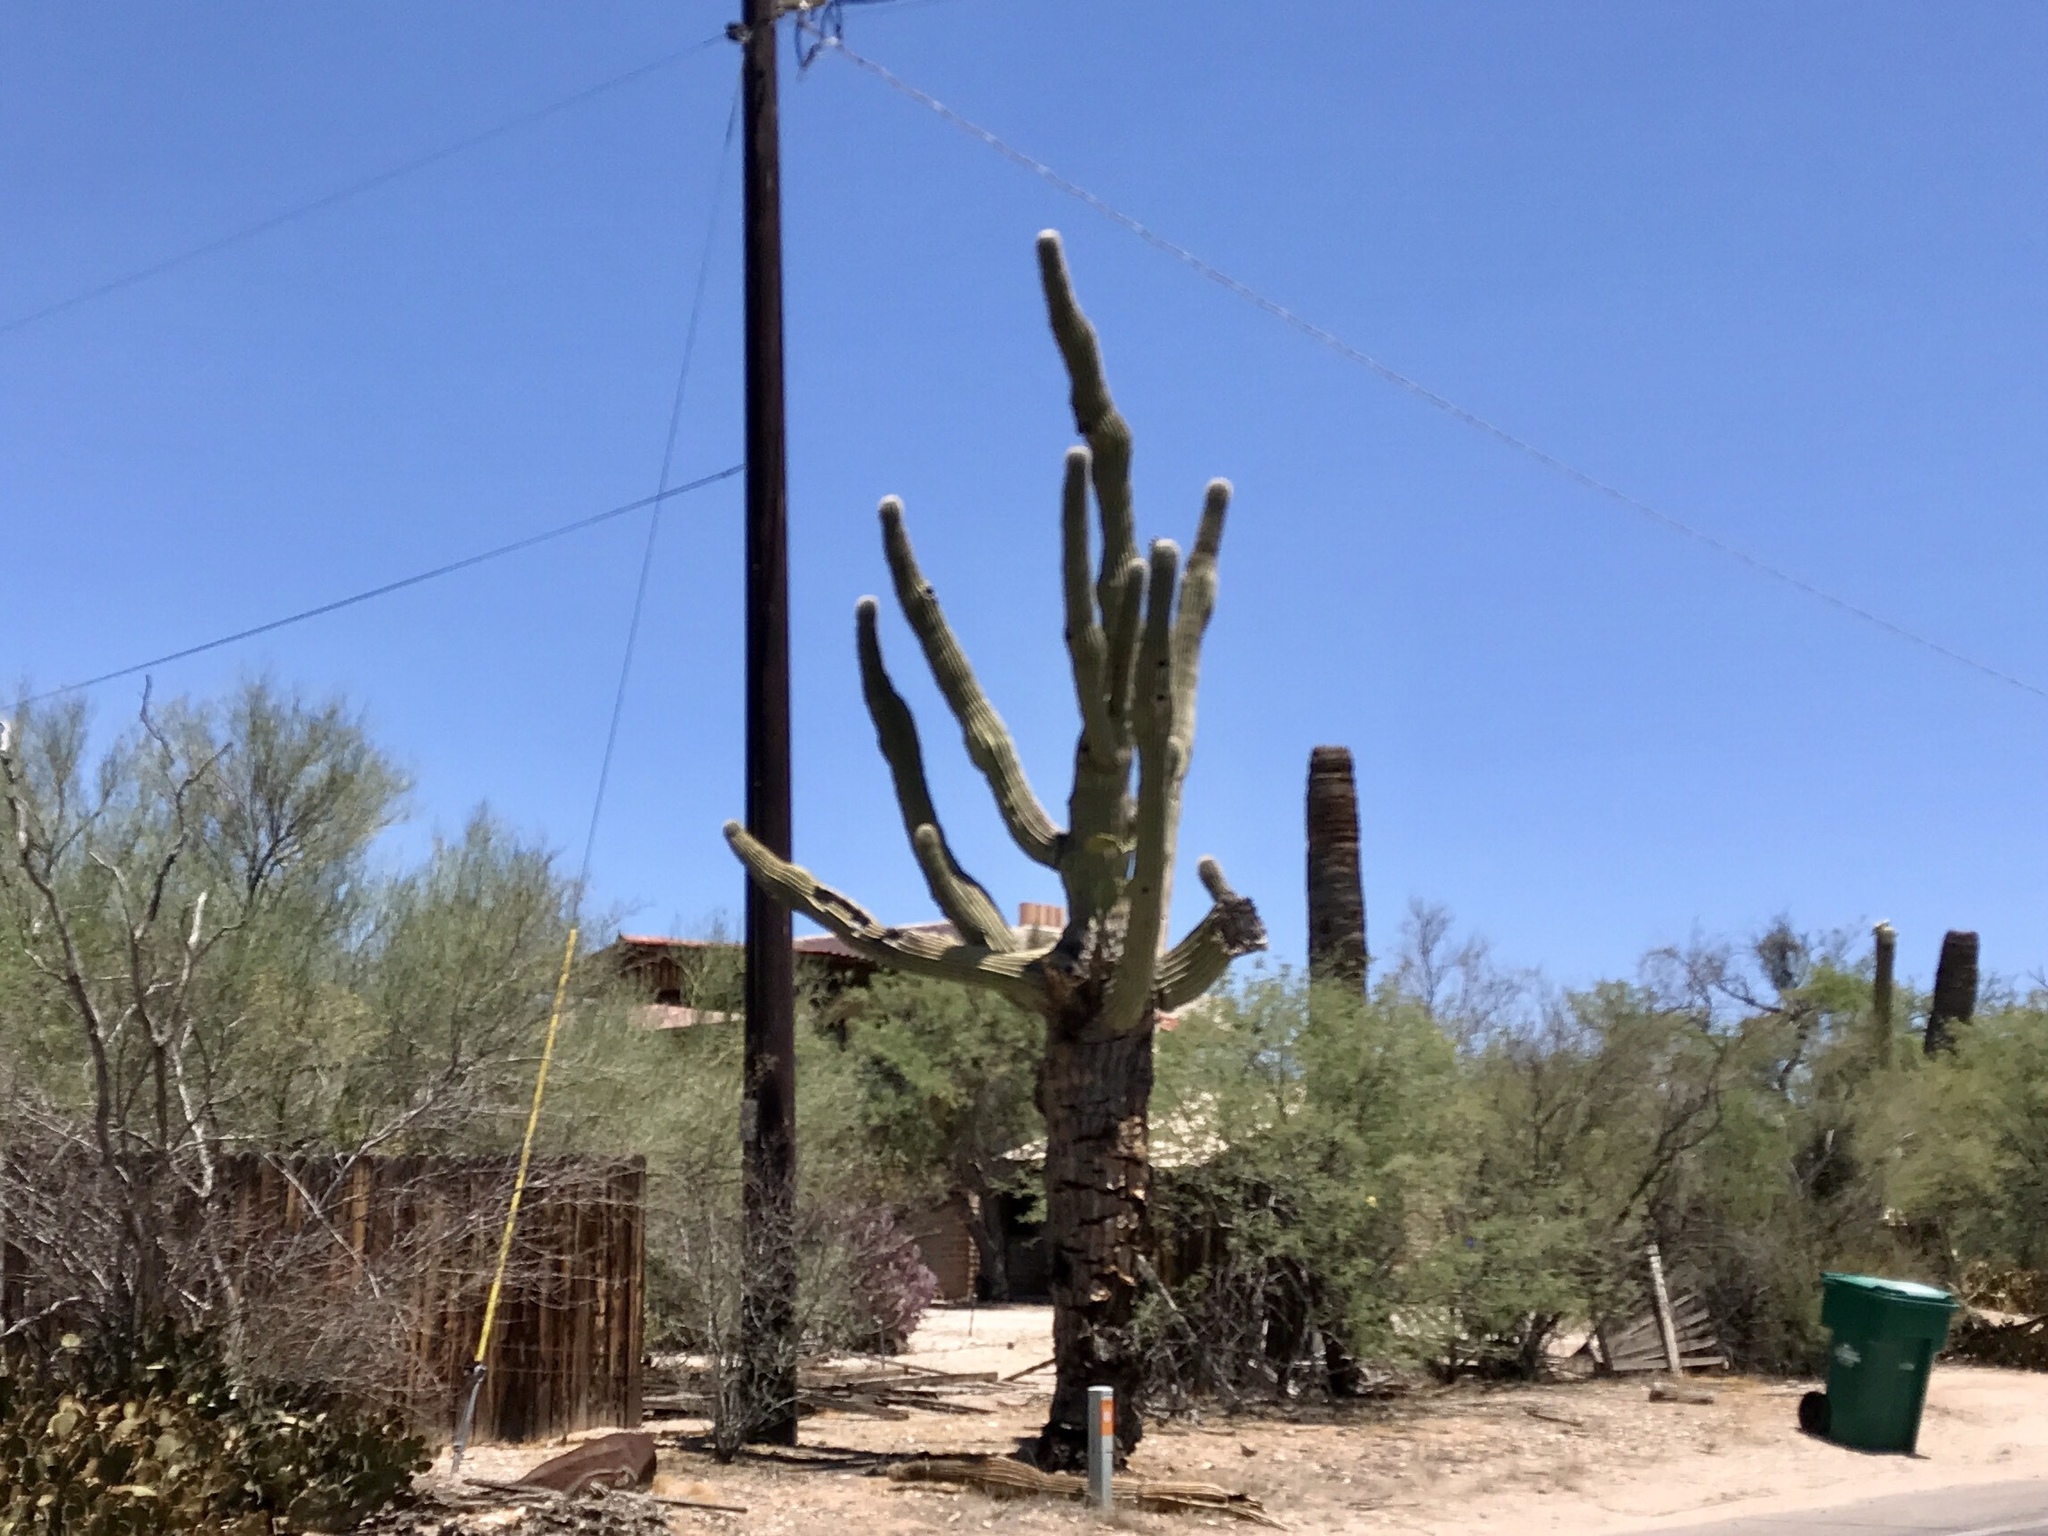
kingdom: Plantae
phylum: Tracheophyta
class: Magnoliopsida
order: Caryophyllales
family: Cactaceae
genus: Carnegiea
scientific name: Carnegiea gigantea
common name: Saguaro
